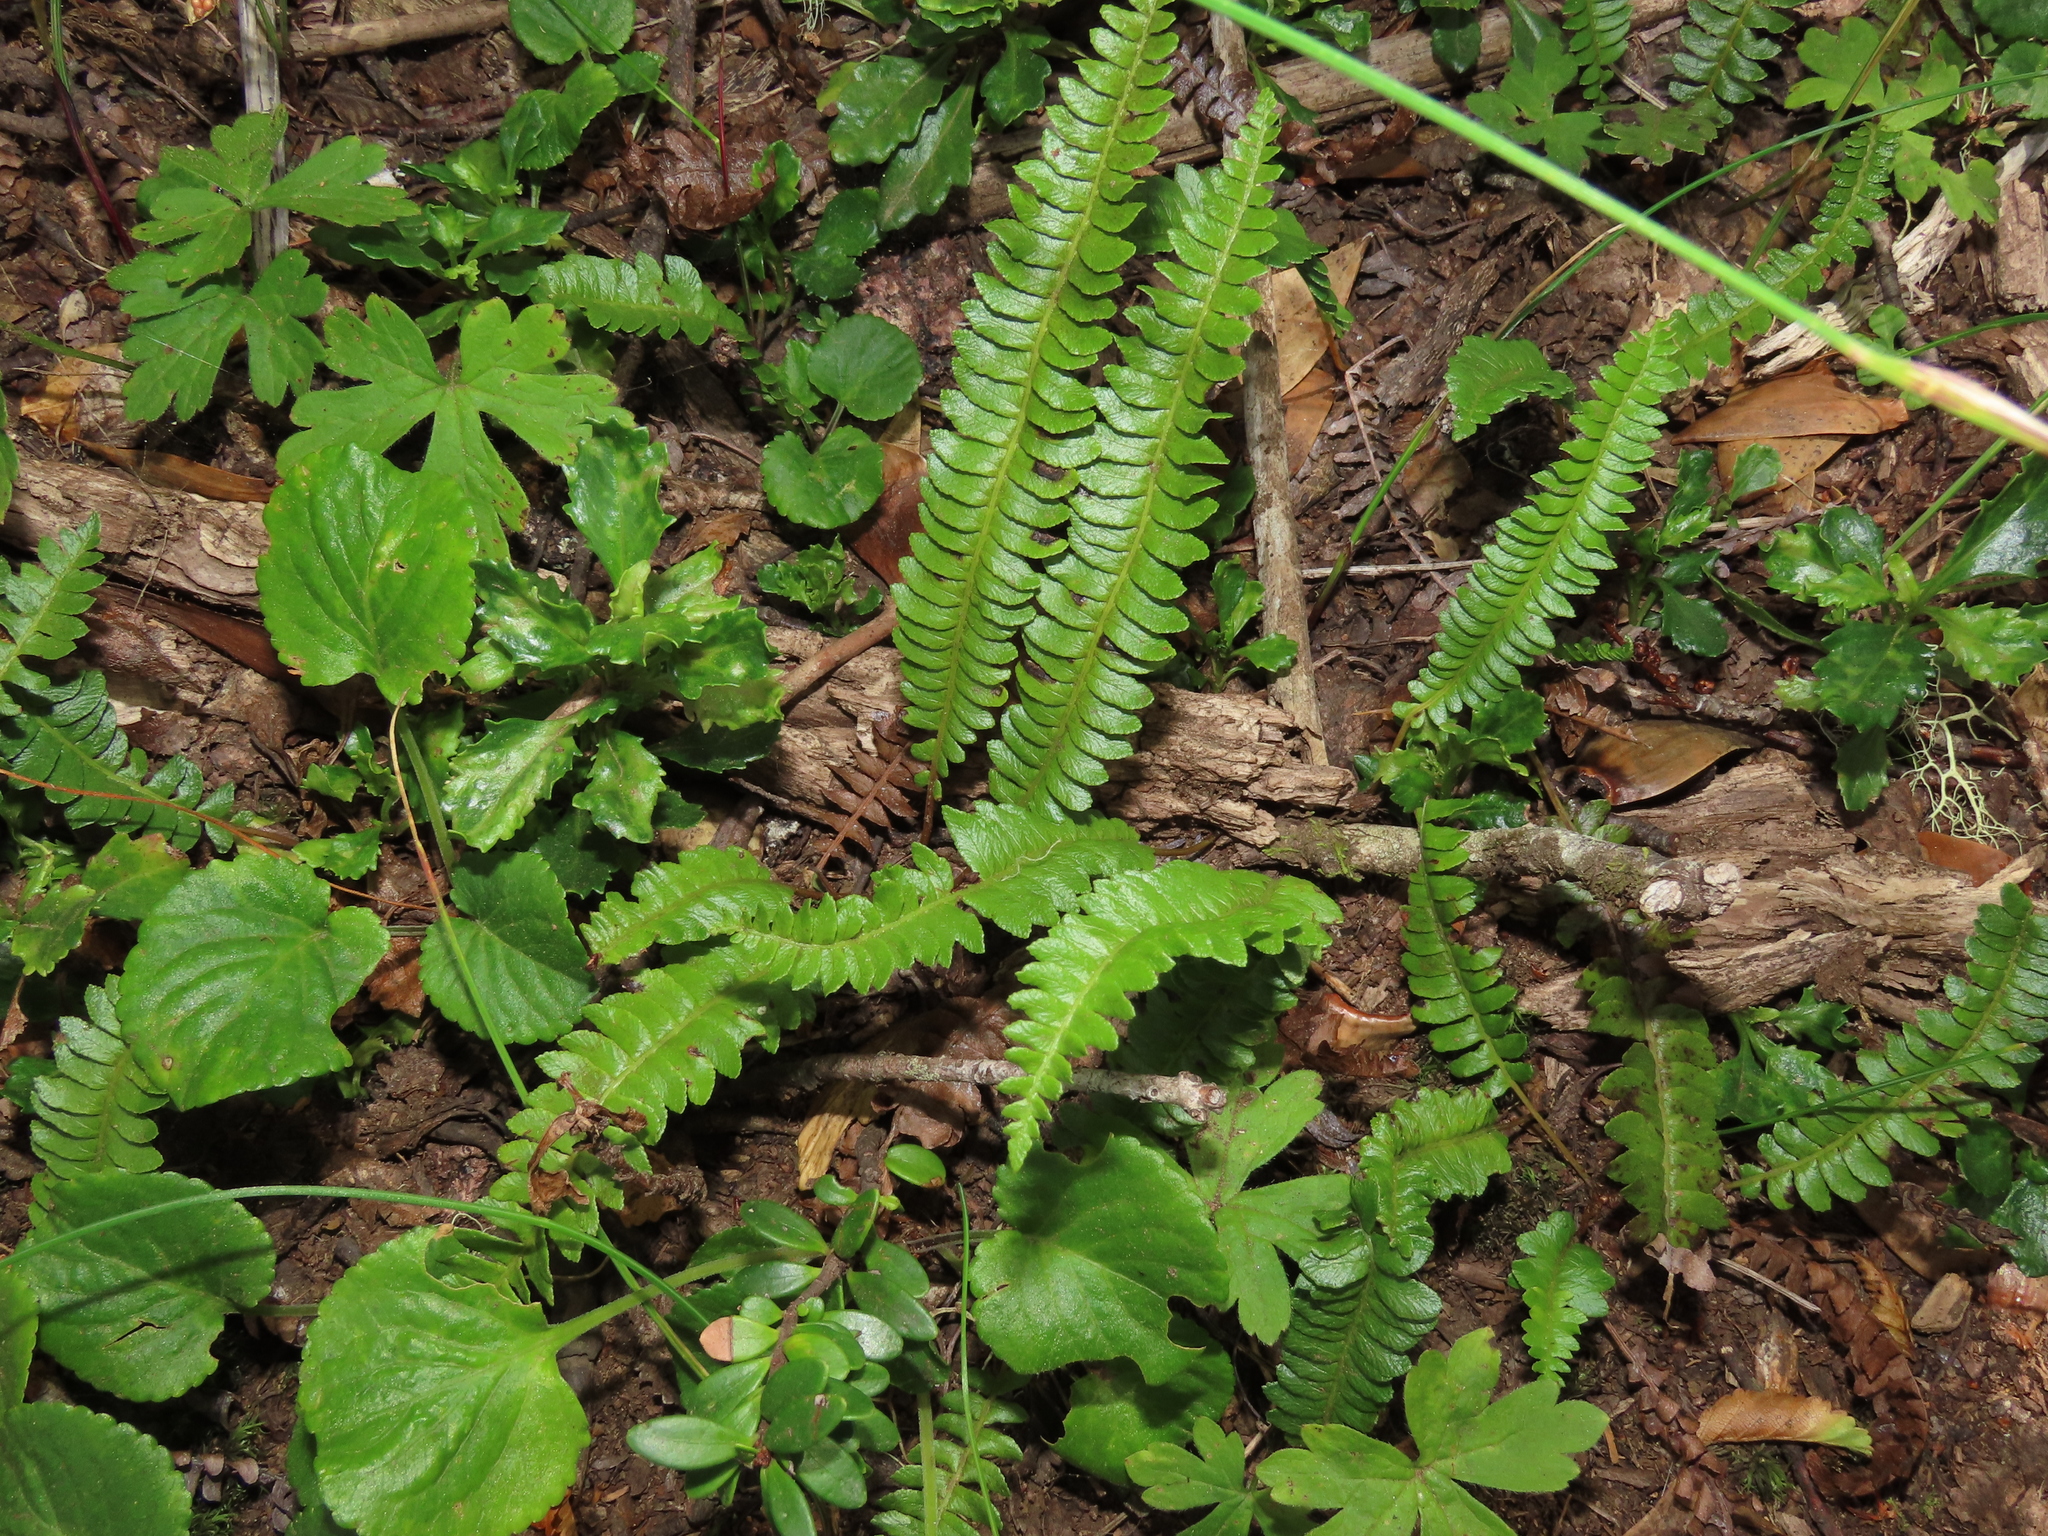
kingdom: Plantae
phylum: Tracheophyta
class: Polypodiopsida
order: Polypodiales
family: Blechnaceae
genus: Austroblechnum
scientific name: Austroblechnum microphyllum
